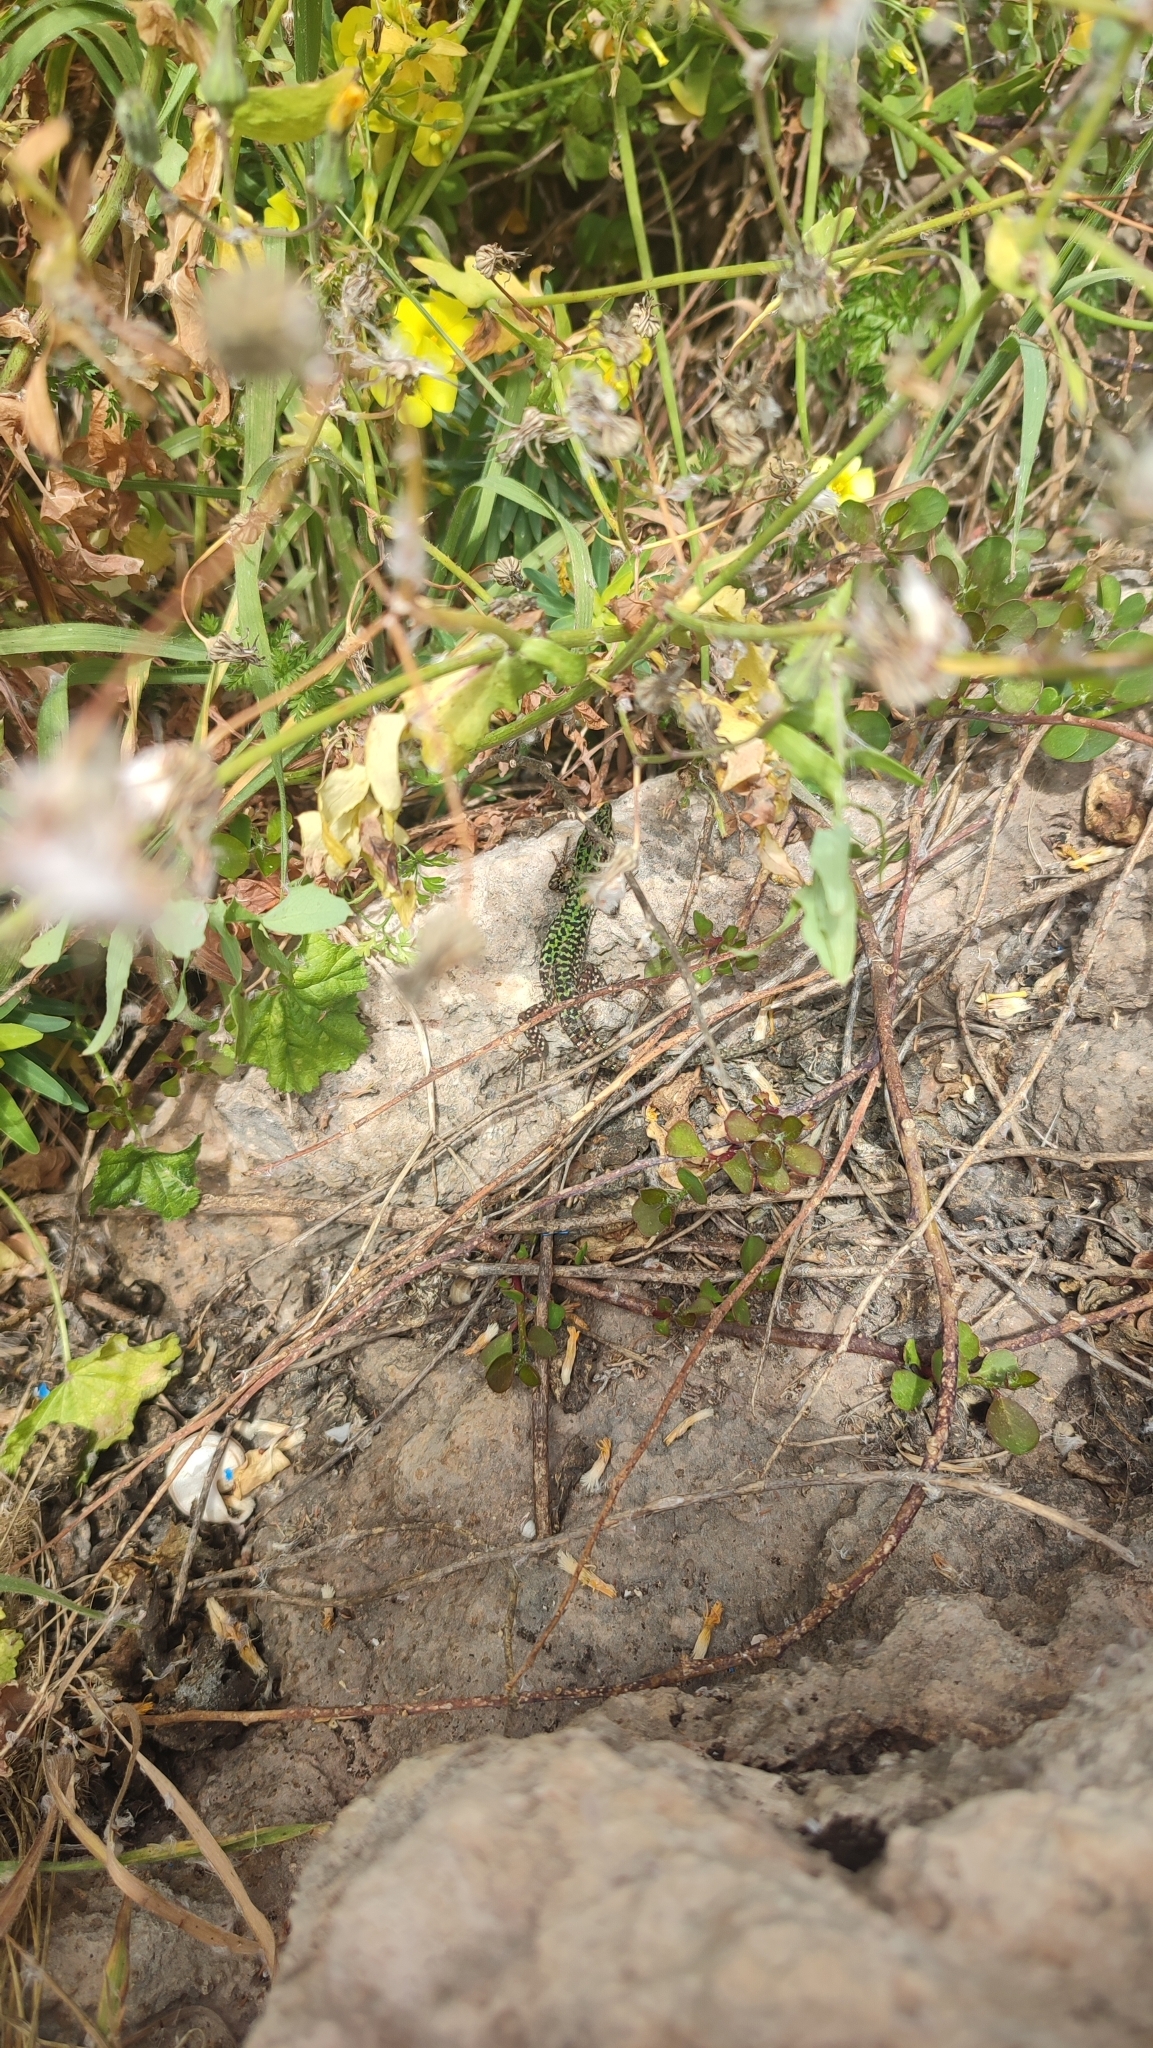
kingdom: Animalia
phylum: Chordata
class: Squamata
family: Lacertidae
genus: Podarcis
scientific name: Podarcis filfolensis
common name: Maltese wall lizard
